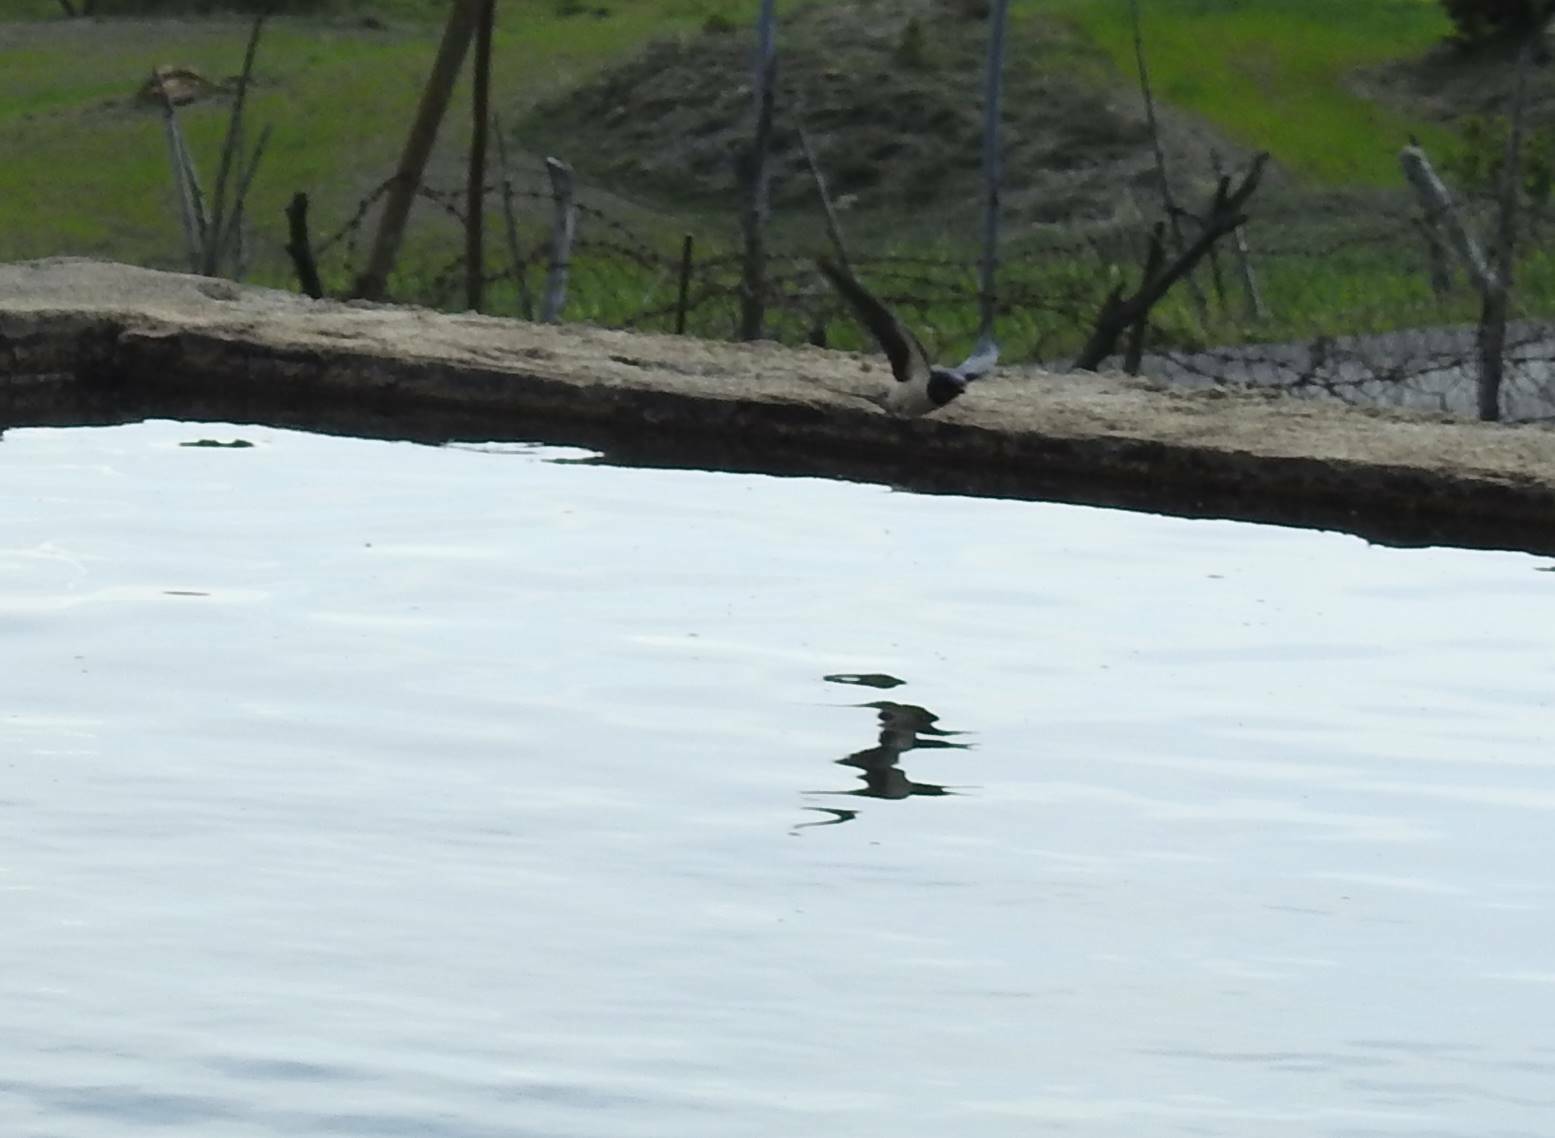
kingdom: Animalia
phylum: Chordata
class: Aves
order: Passeriformes
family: Hirundinidae
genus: Hirundo
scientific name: Hirundo rustica
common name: Barn swallow
